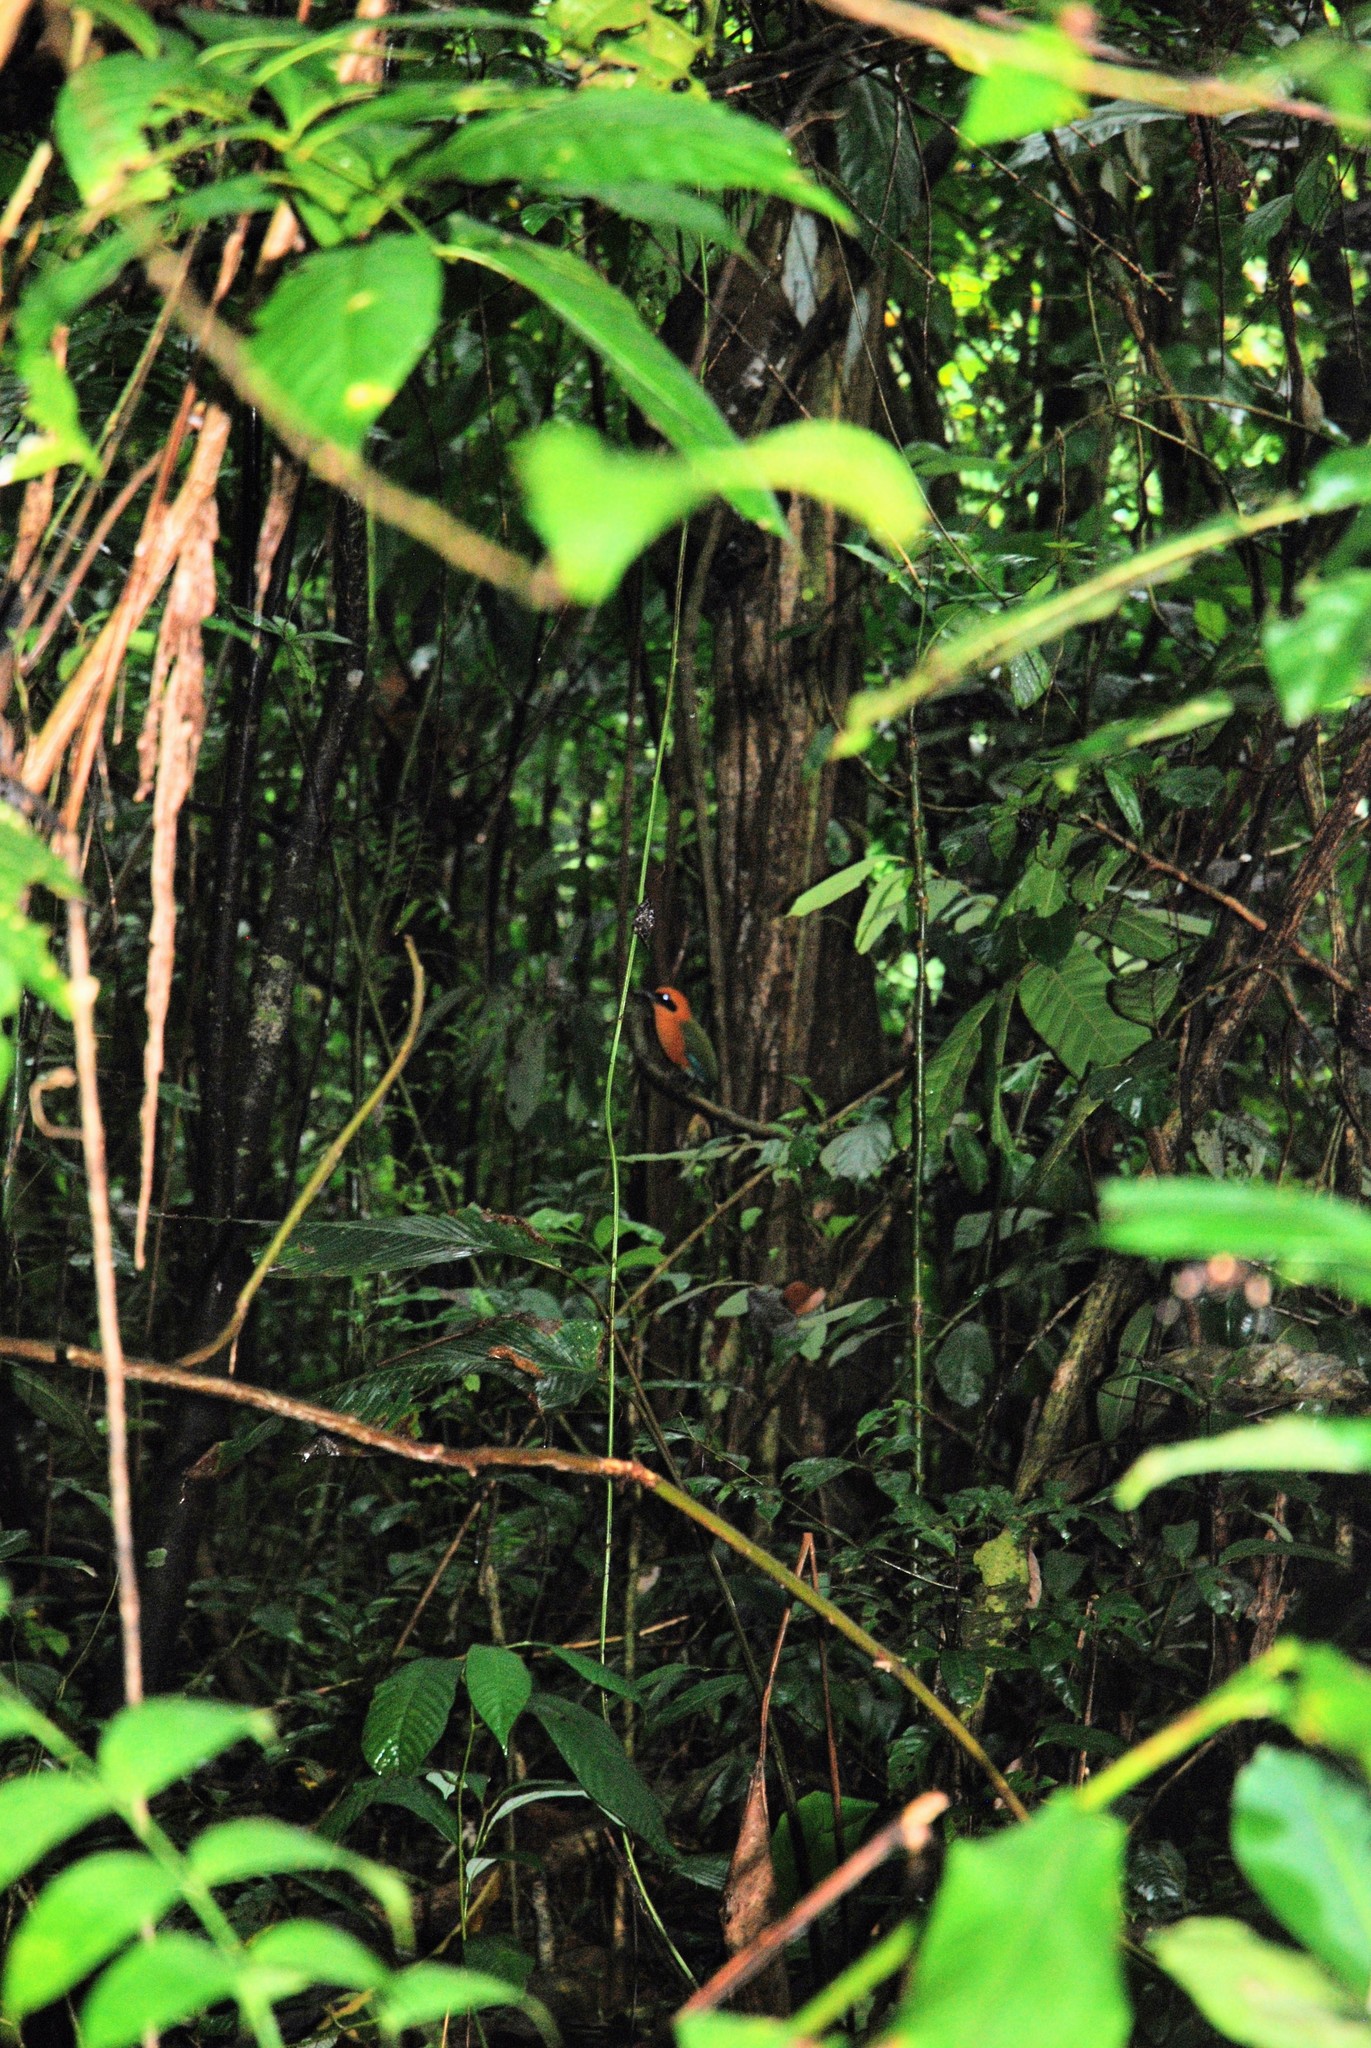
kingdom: Animalia
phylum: Chordata
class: Aves
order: Coraciiformes
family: Momotidae
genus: Baryphthengus
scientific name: Baryphthengus martii
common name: Rufous motmot
